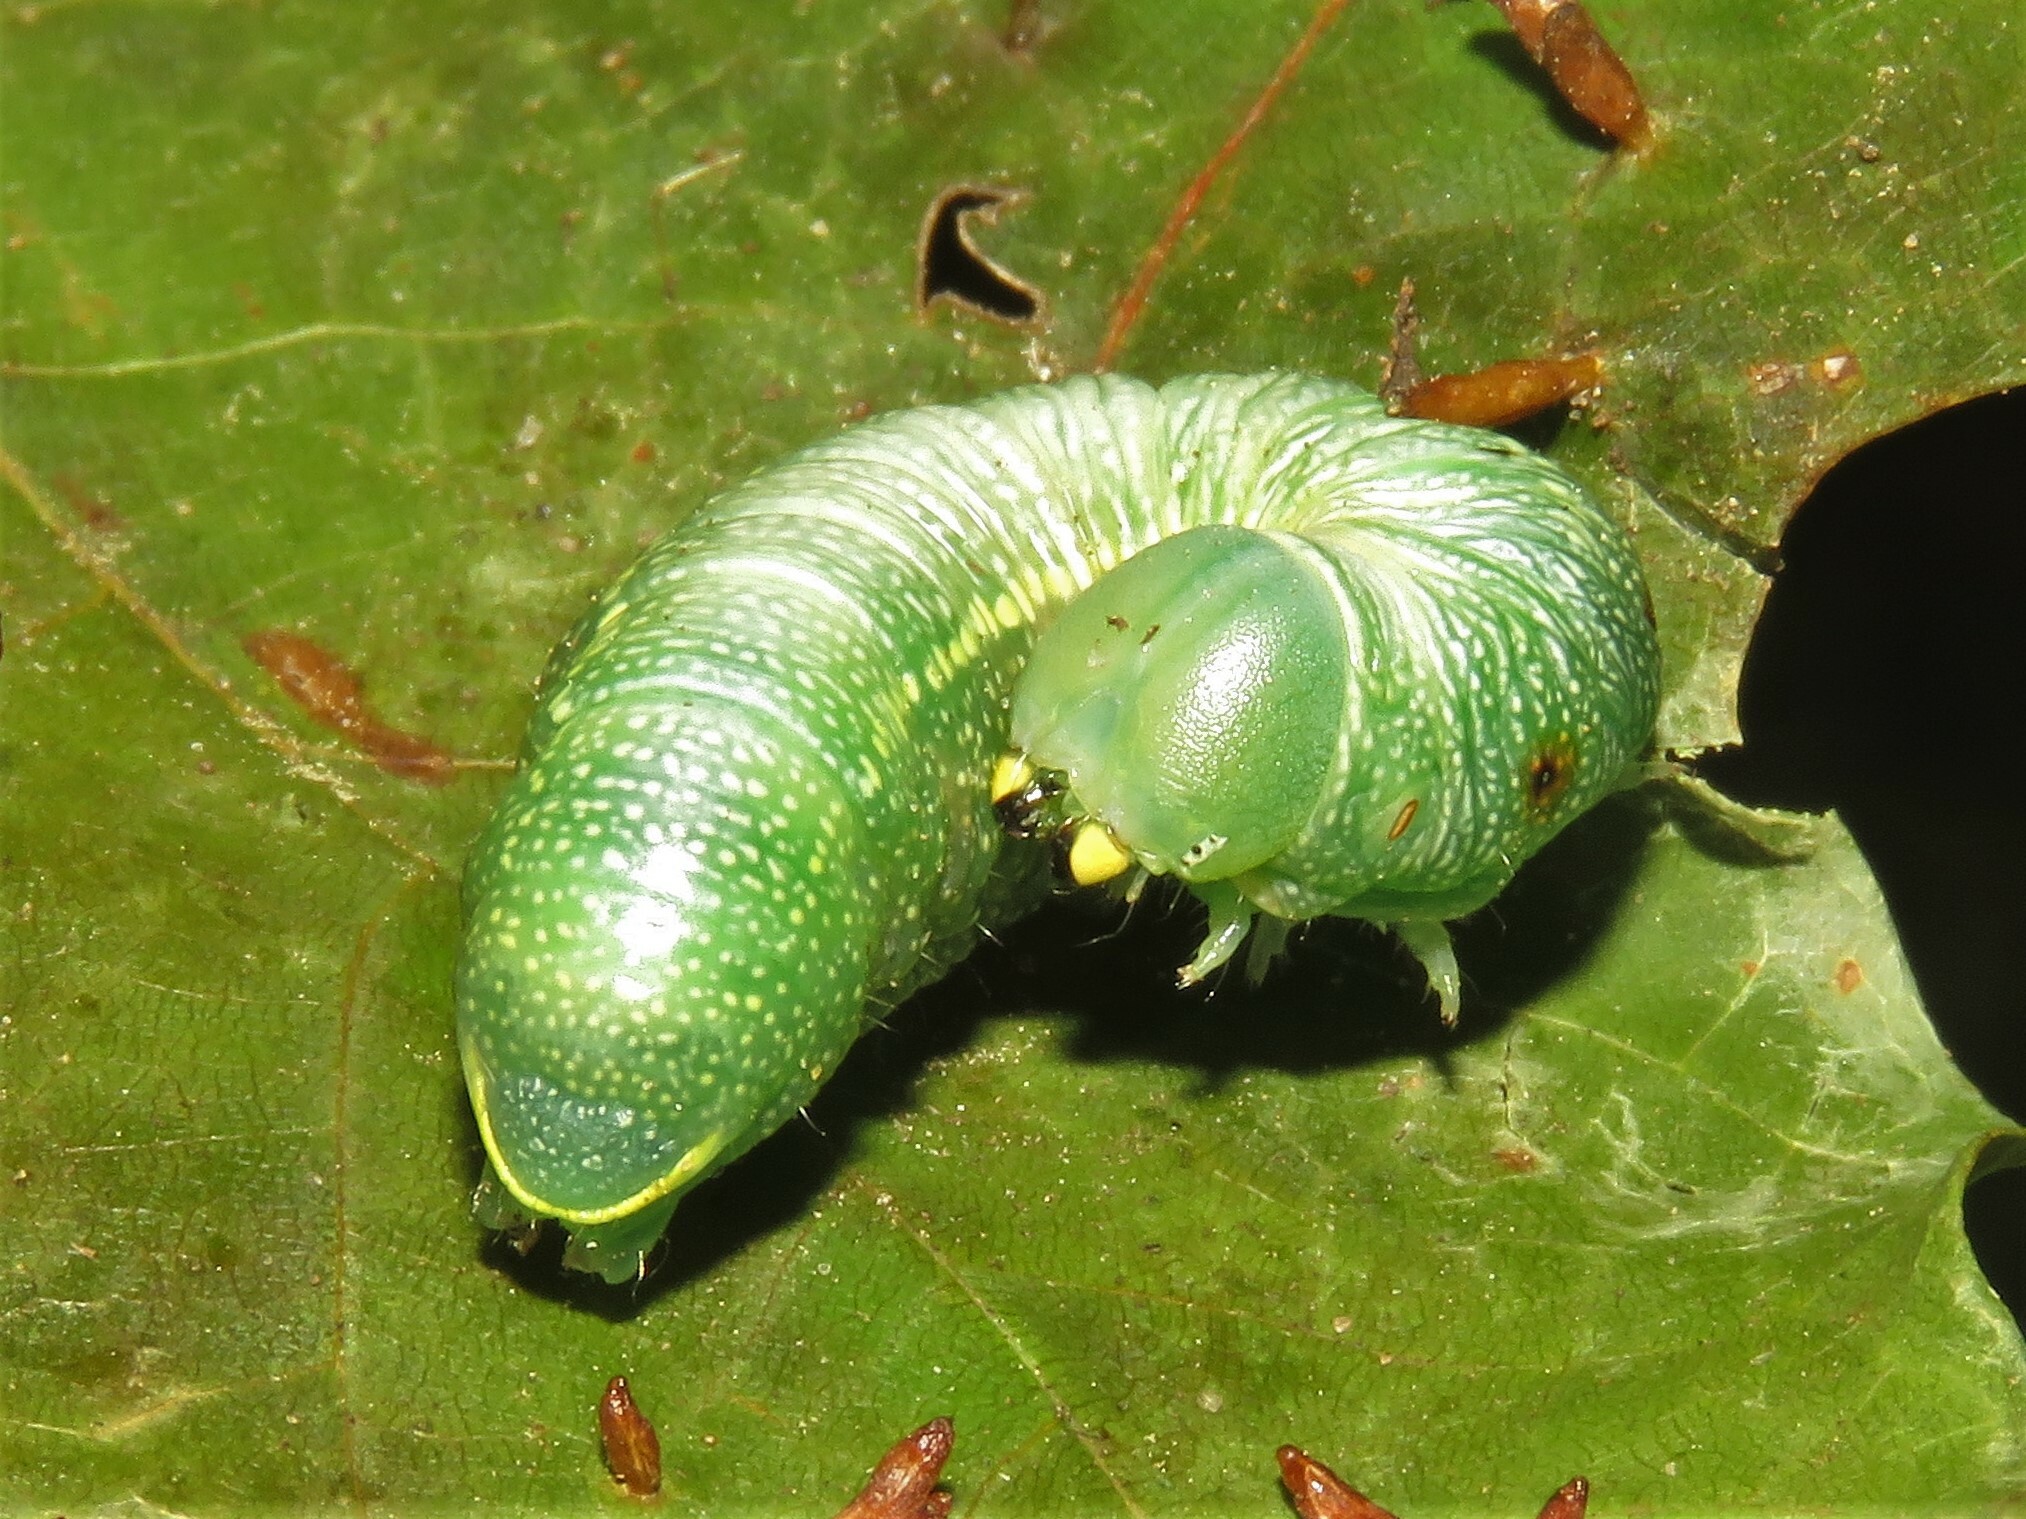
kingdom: Animalia
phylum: Arthropoda
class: Insecta
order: Lepidoptera
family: Notodontidae
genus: Nadata
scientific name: Nadata gibbosa
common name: White-dotted prominent
